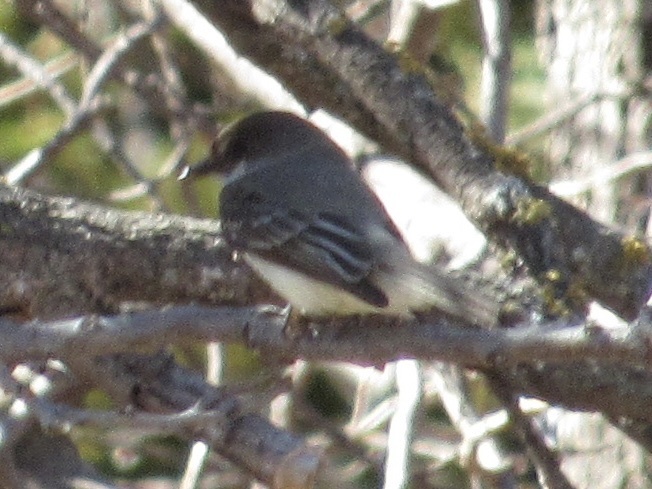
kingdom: Animalia
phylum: Chordata
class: Aves
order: Passeriformes
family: Tyrannidae
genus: Sayornis
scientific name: Sayornis phoebe
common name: Eastern phoebe
